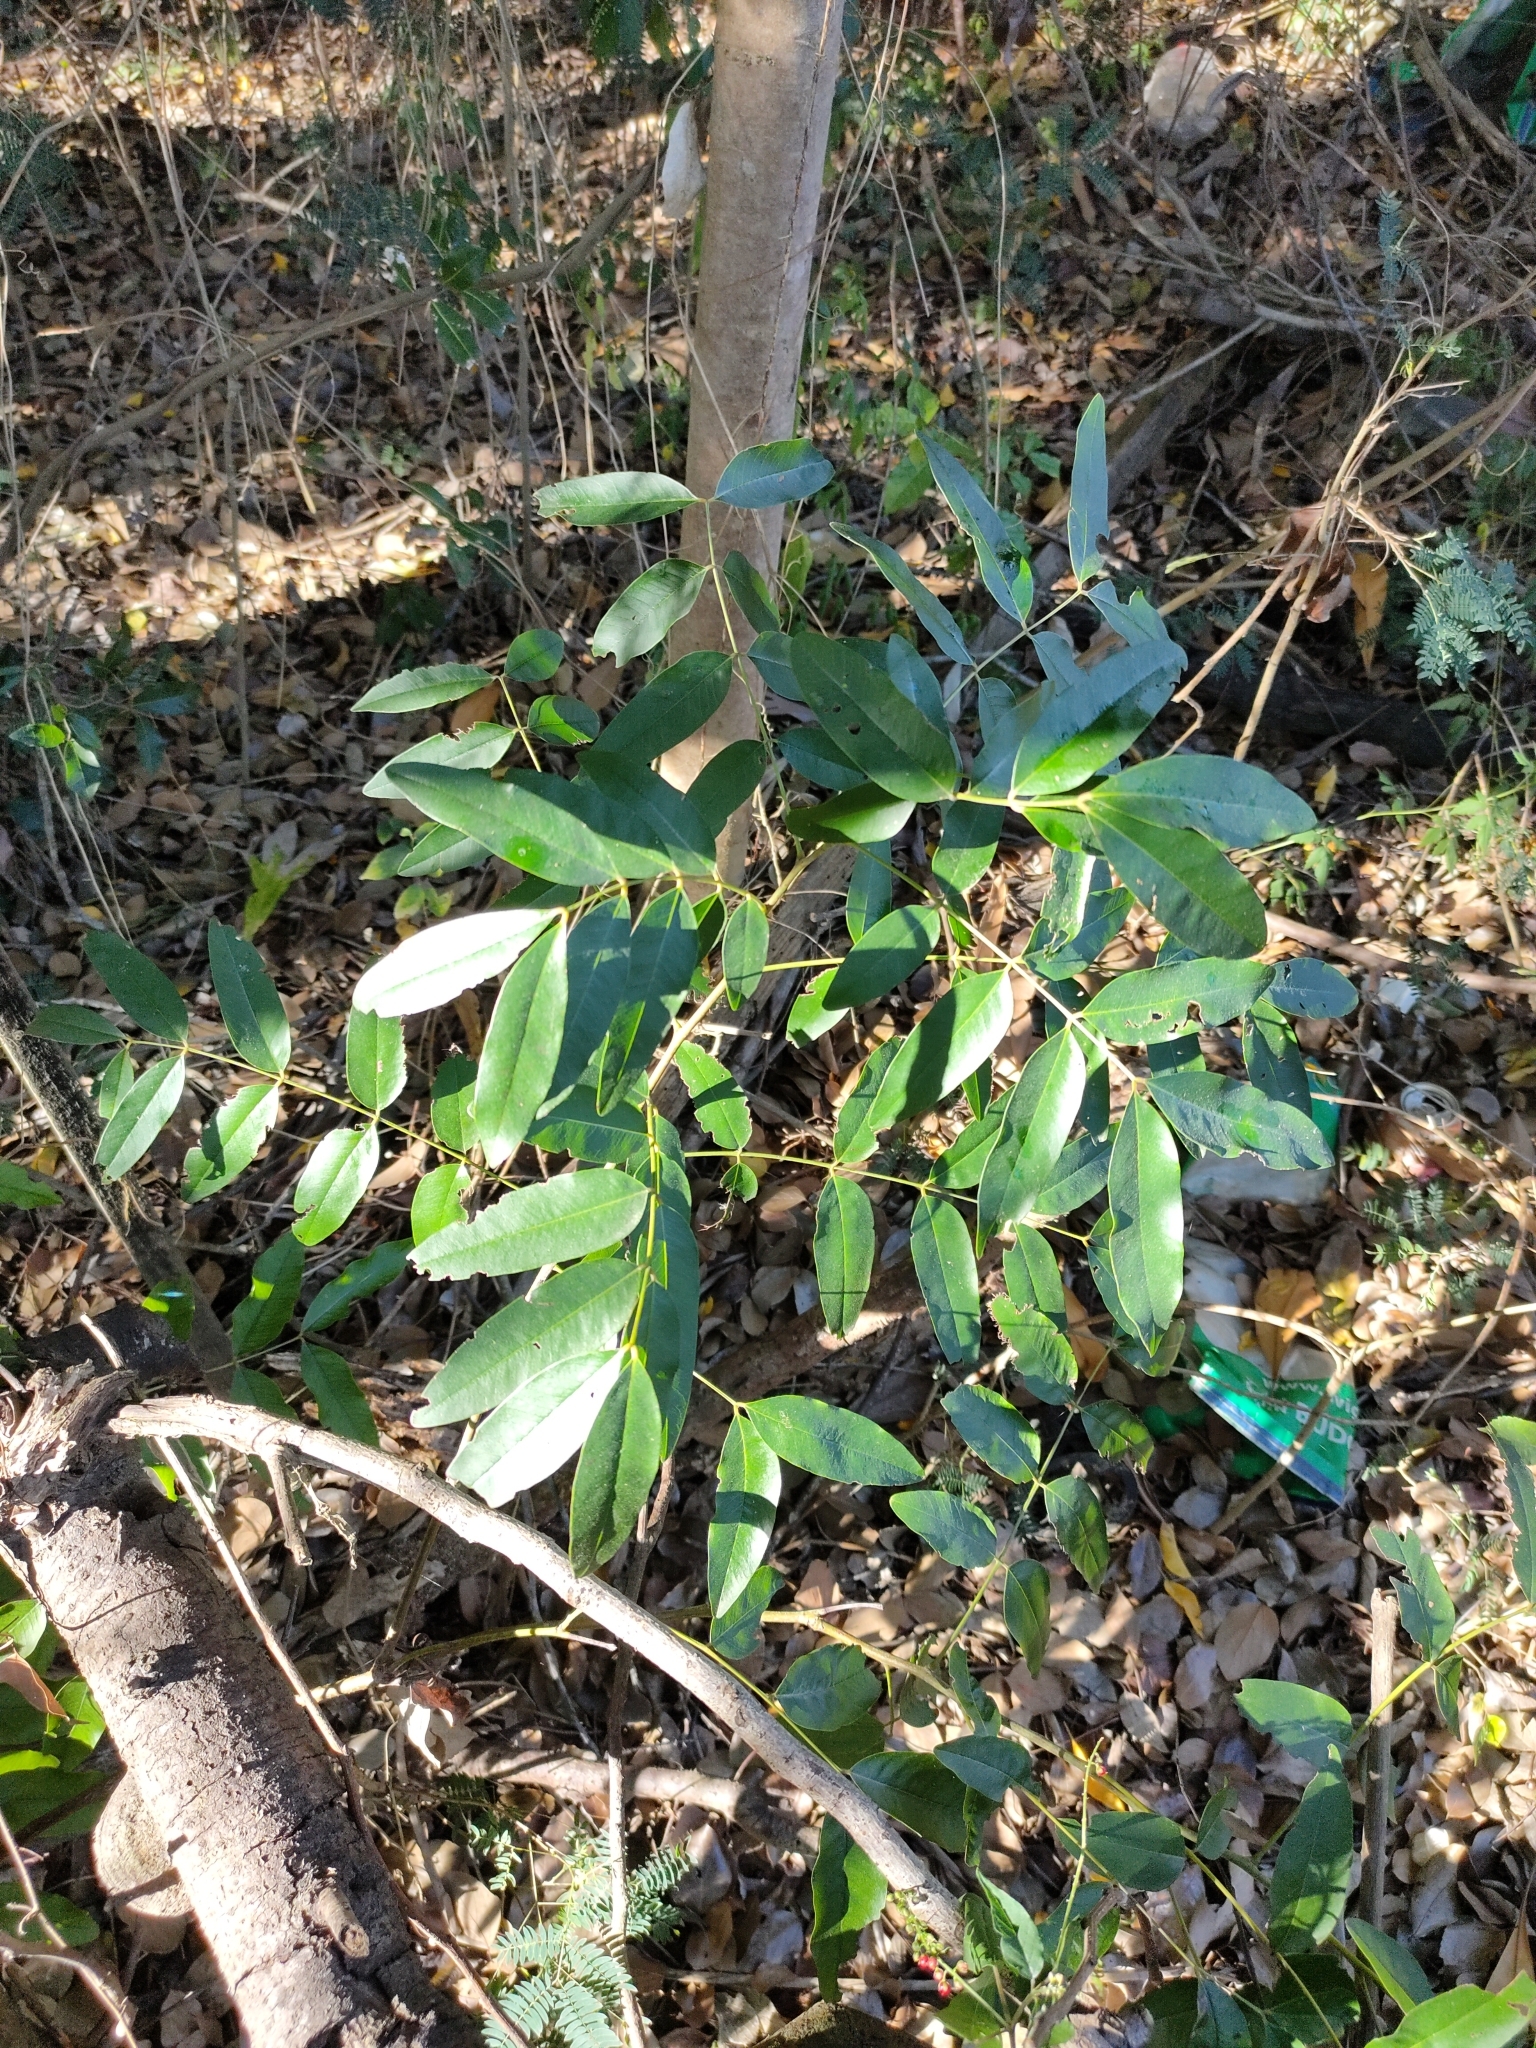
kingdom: Plantae
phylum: Tracheophyta
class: Magnoliopsida
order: Fabales
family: Fabaceae
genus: Cassia
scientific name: Cassia brewsteri
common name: Brewster's cassia
